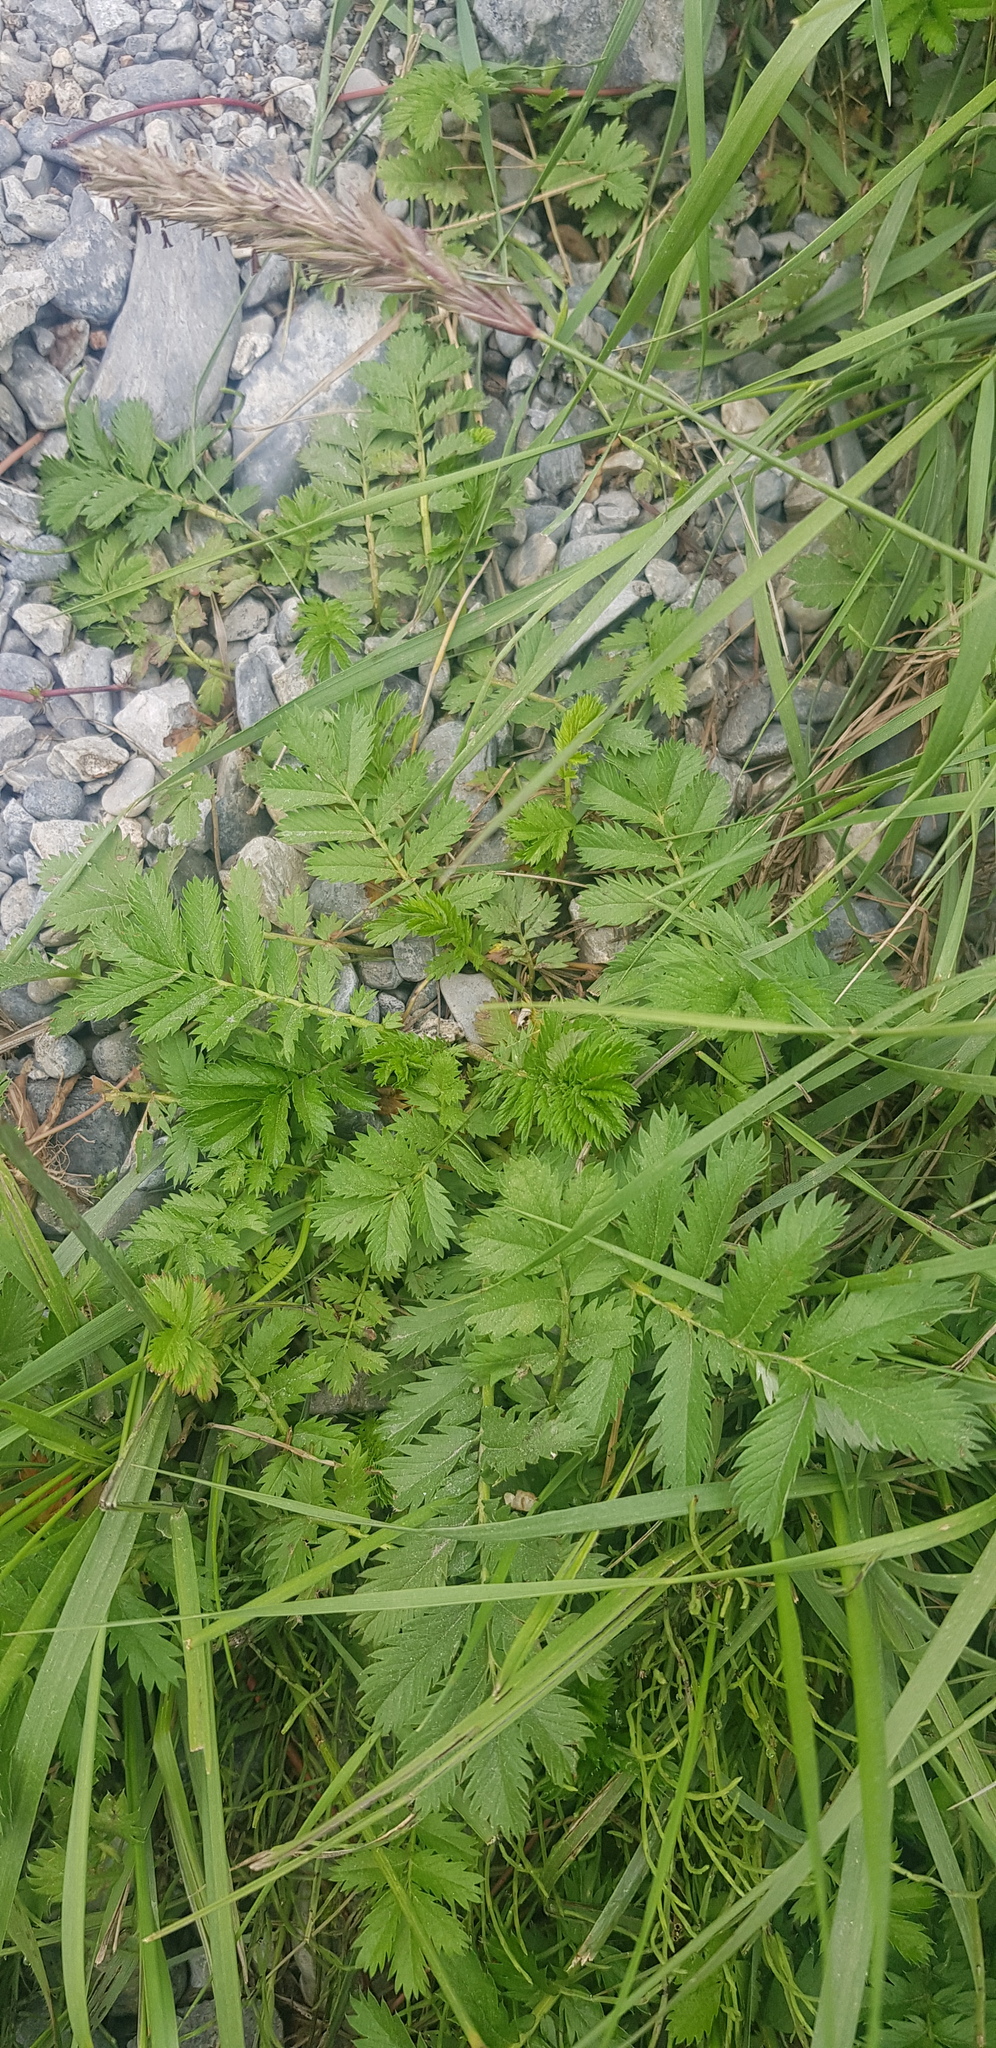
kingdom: Plantae
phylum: Tracheophyta
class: Magnoliopsida
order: Rosales
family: Rosaceae
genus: Argentina
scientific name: Argentina anserina
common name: Common silverweed
